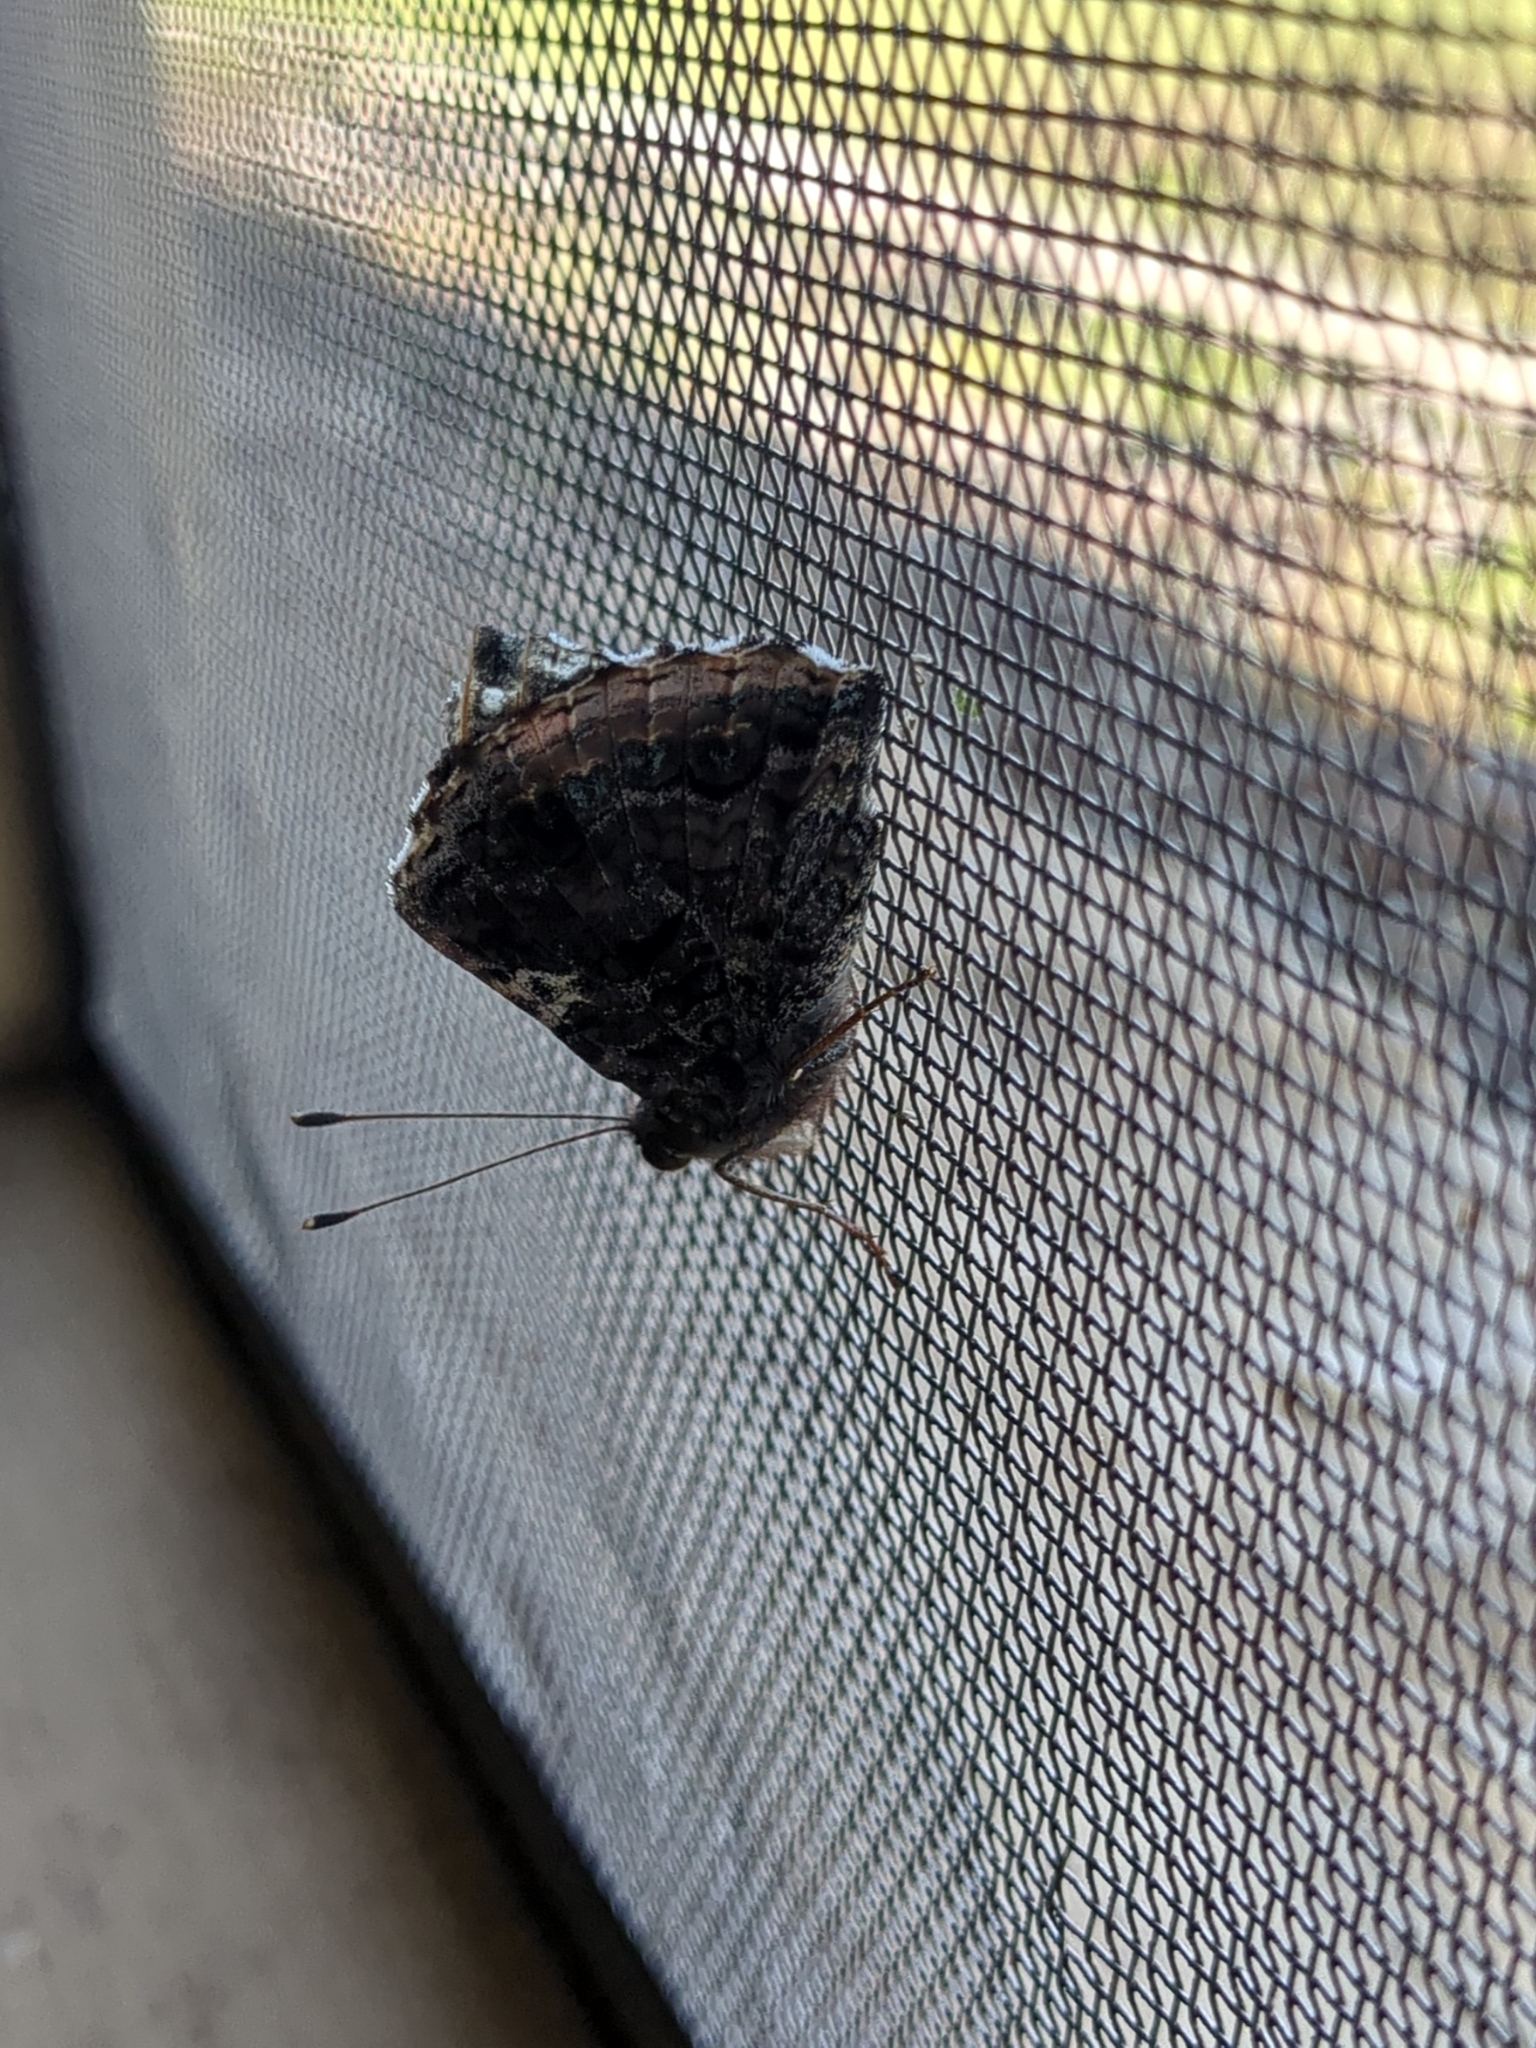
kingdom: Animalia
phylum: Arthropoda
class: Insecta
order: Lepidoptera
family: Nymphalidae
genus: Vanessa
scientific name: Vanessa atalanta
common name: Red admiral
